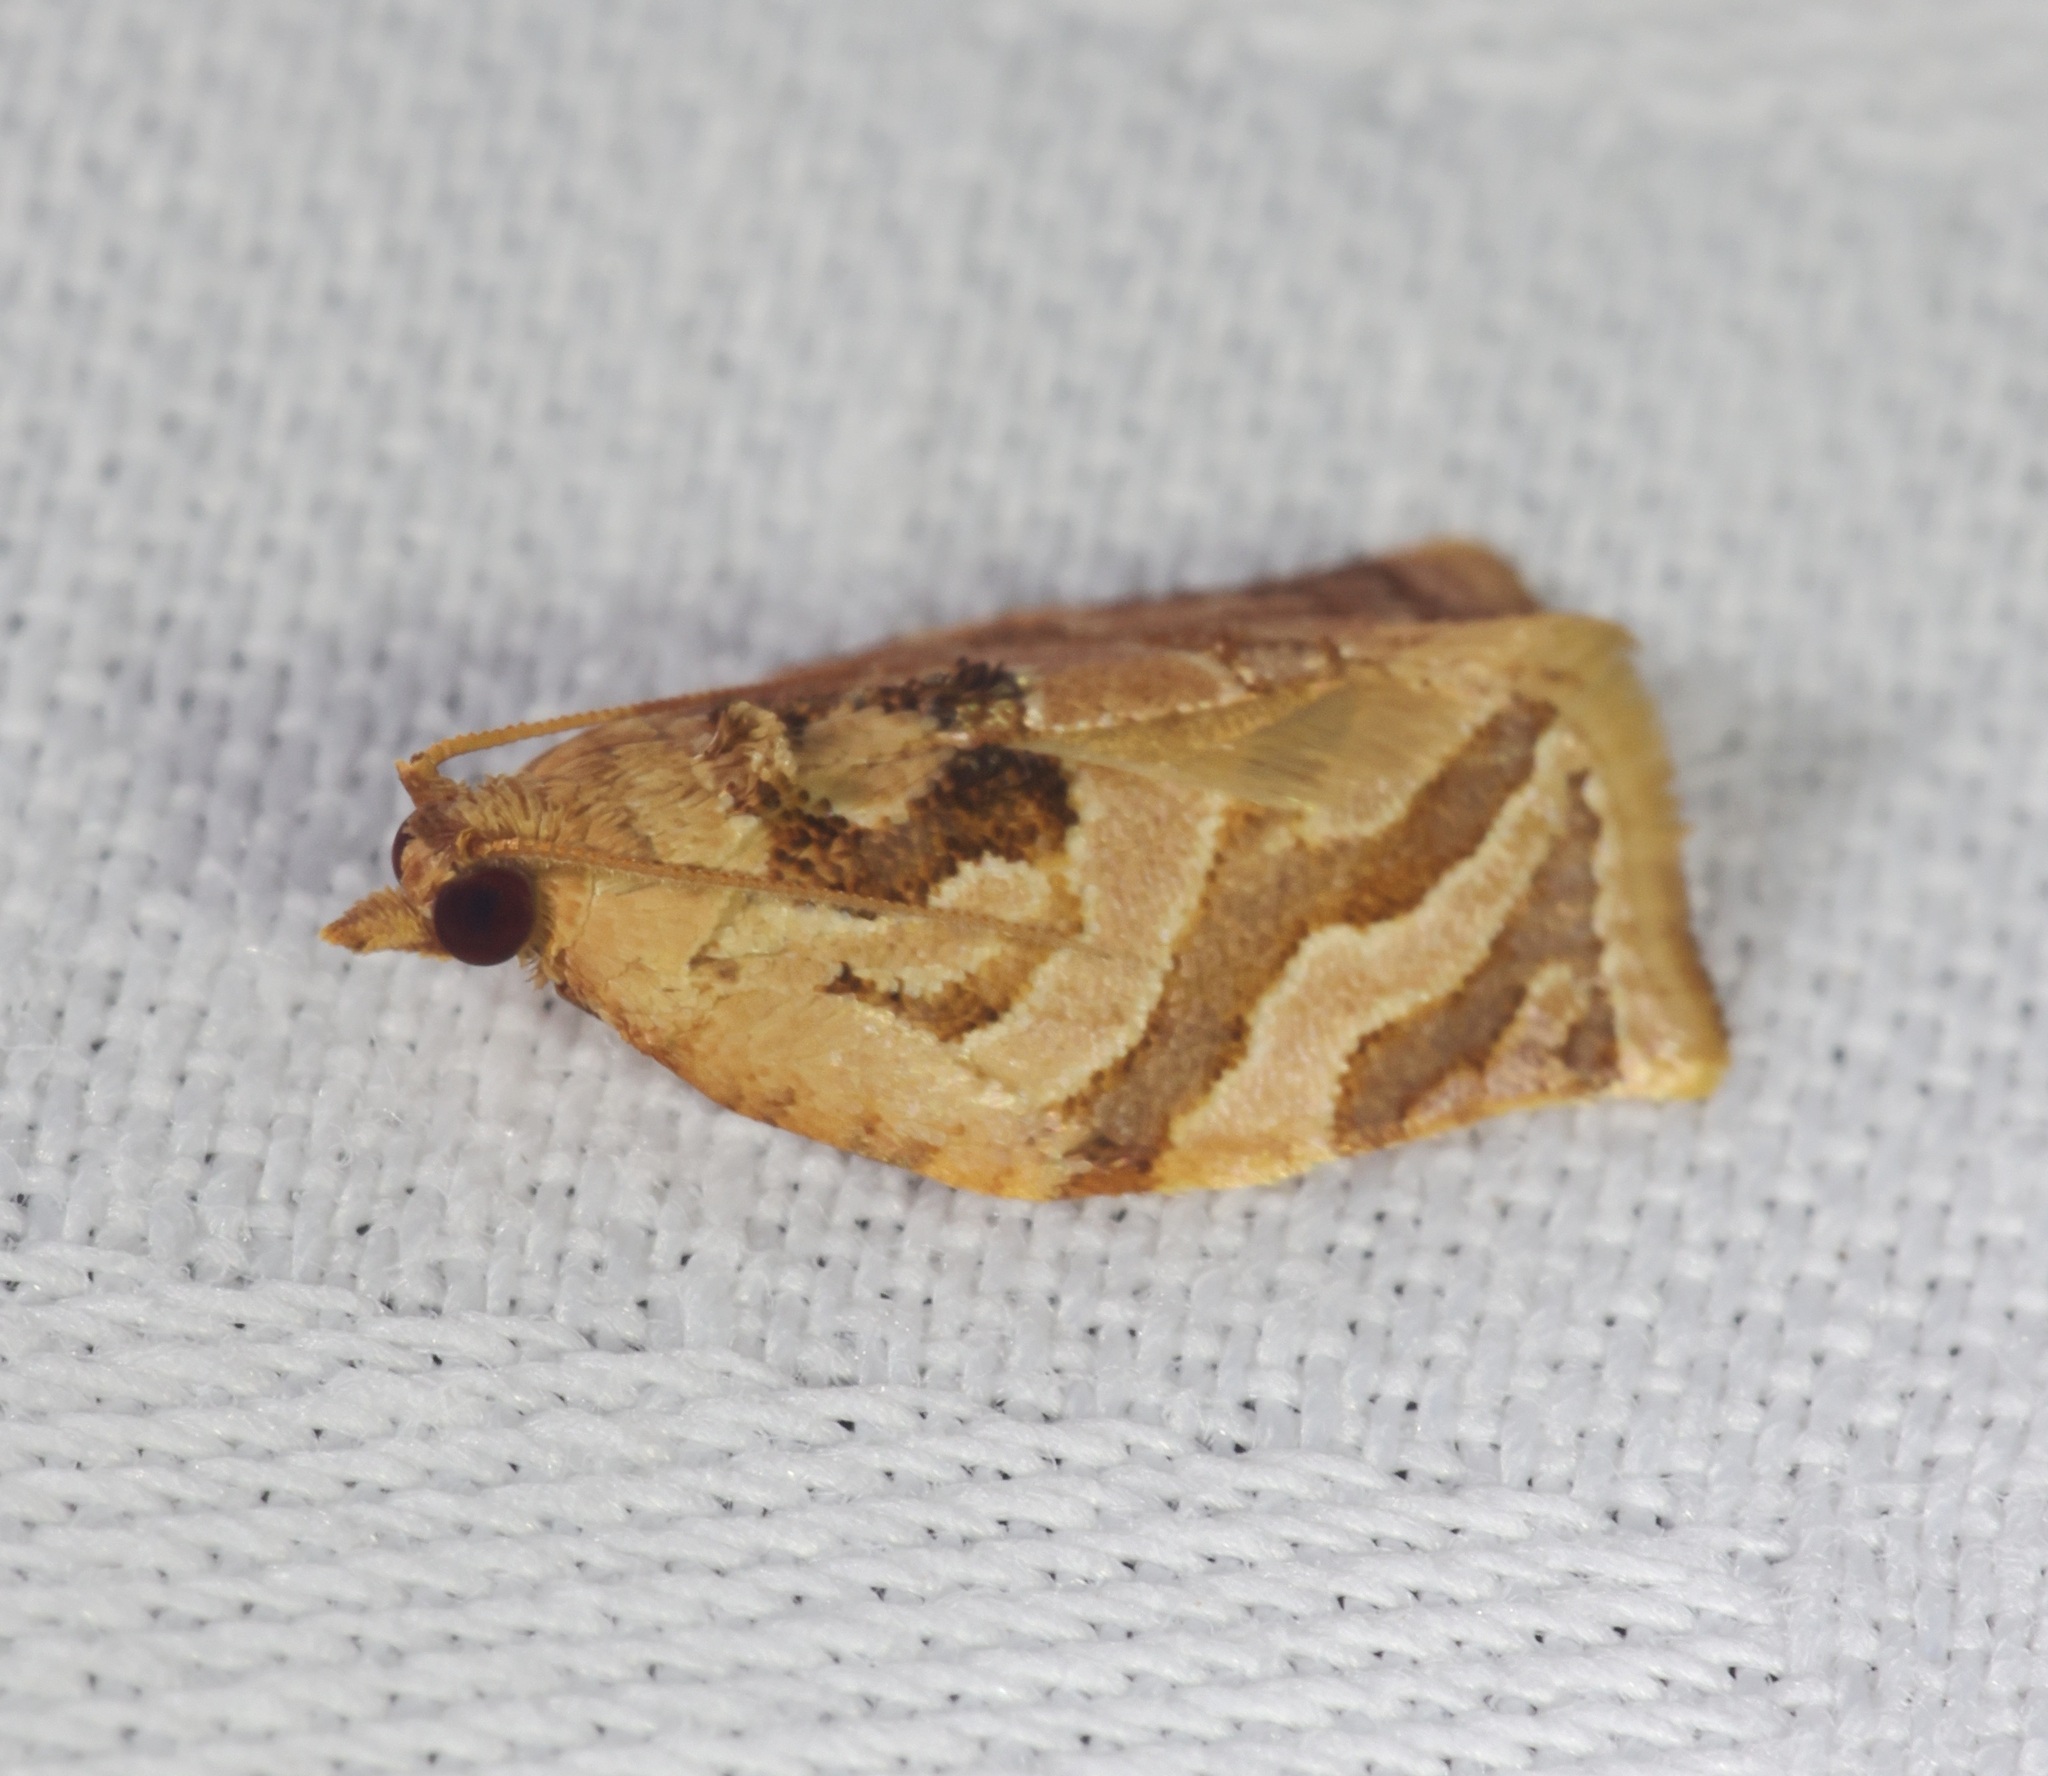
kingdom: Animalia
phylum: Arthropoda
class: Insecta
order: Lepidoptera
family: Tortricidae
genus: Adoxophyes
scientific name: Adoxophyes privatana
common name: Asian orchid tortrix
